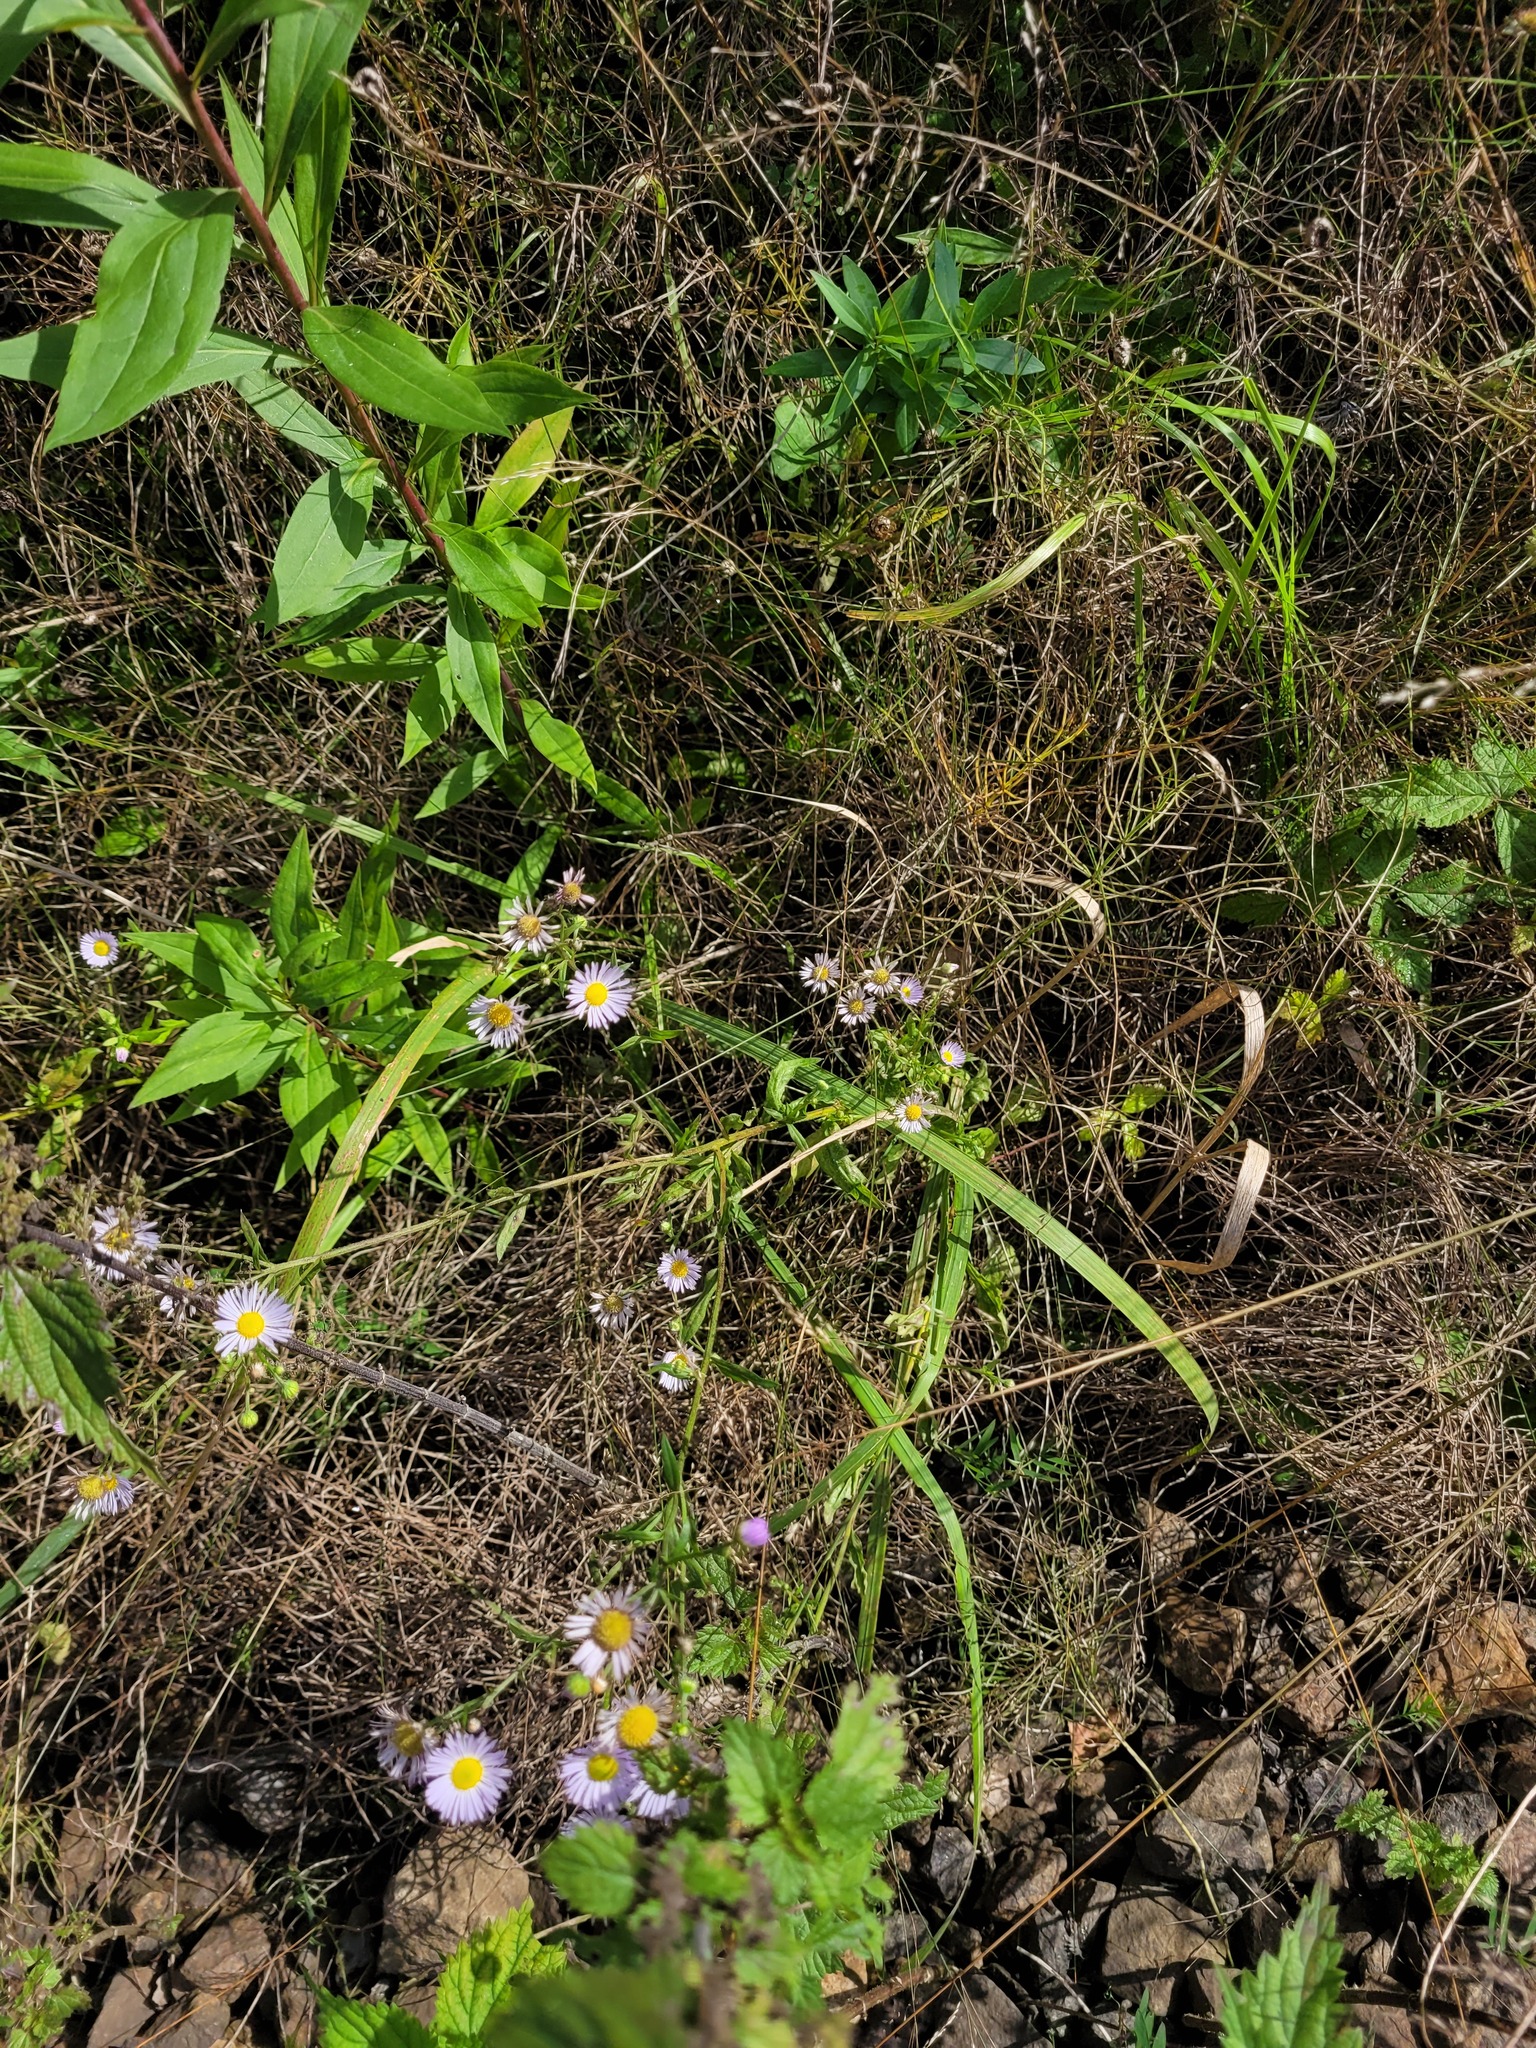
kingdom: Plantae
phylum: Tracheophyta
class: Magnoliopsida
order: Asterales
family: Asteraceae
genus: Erigeron
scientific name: Erigeron annuus
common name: Tall fleabane
